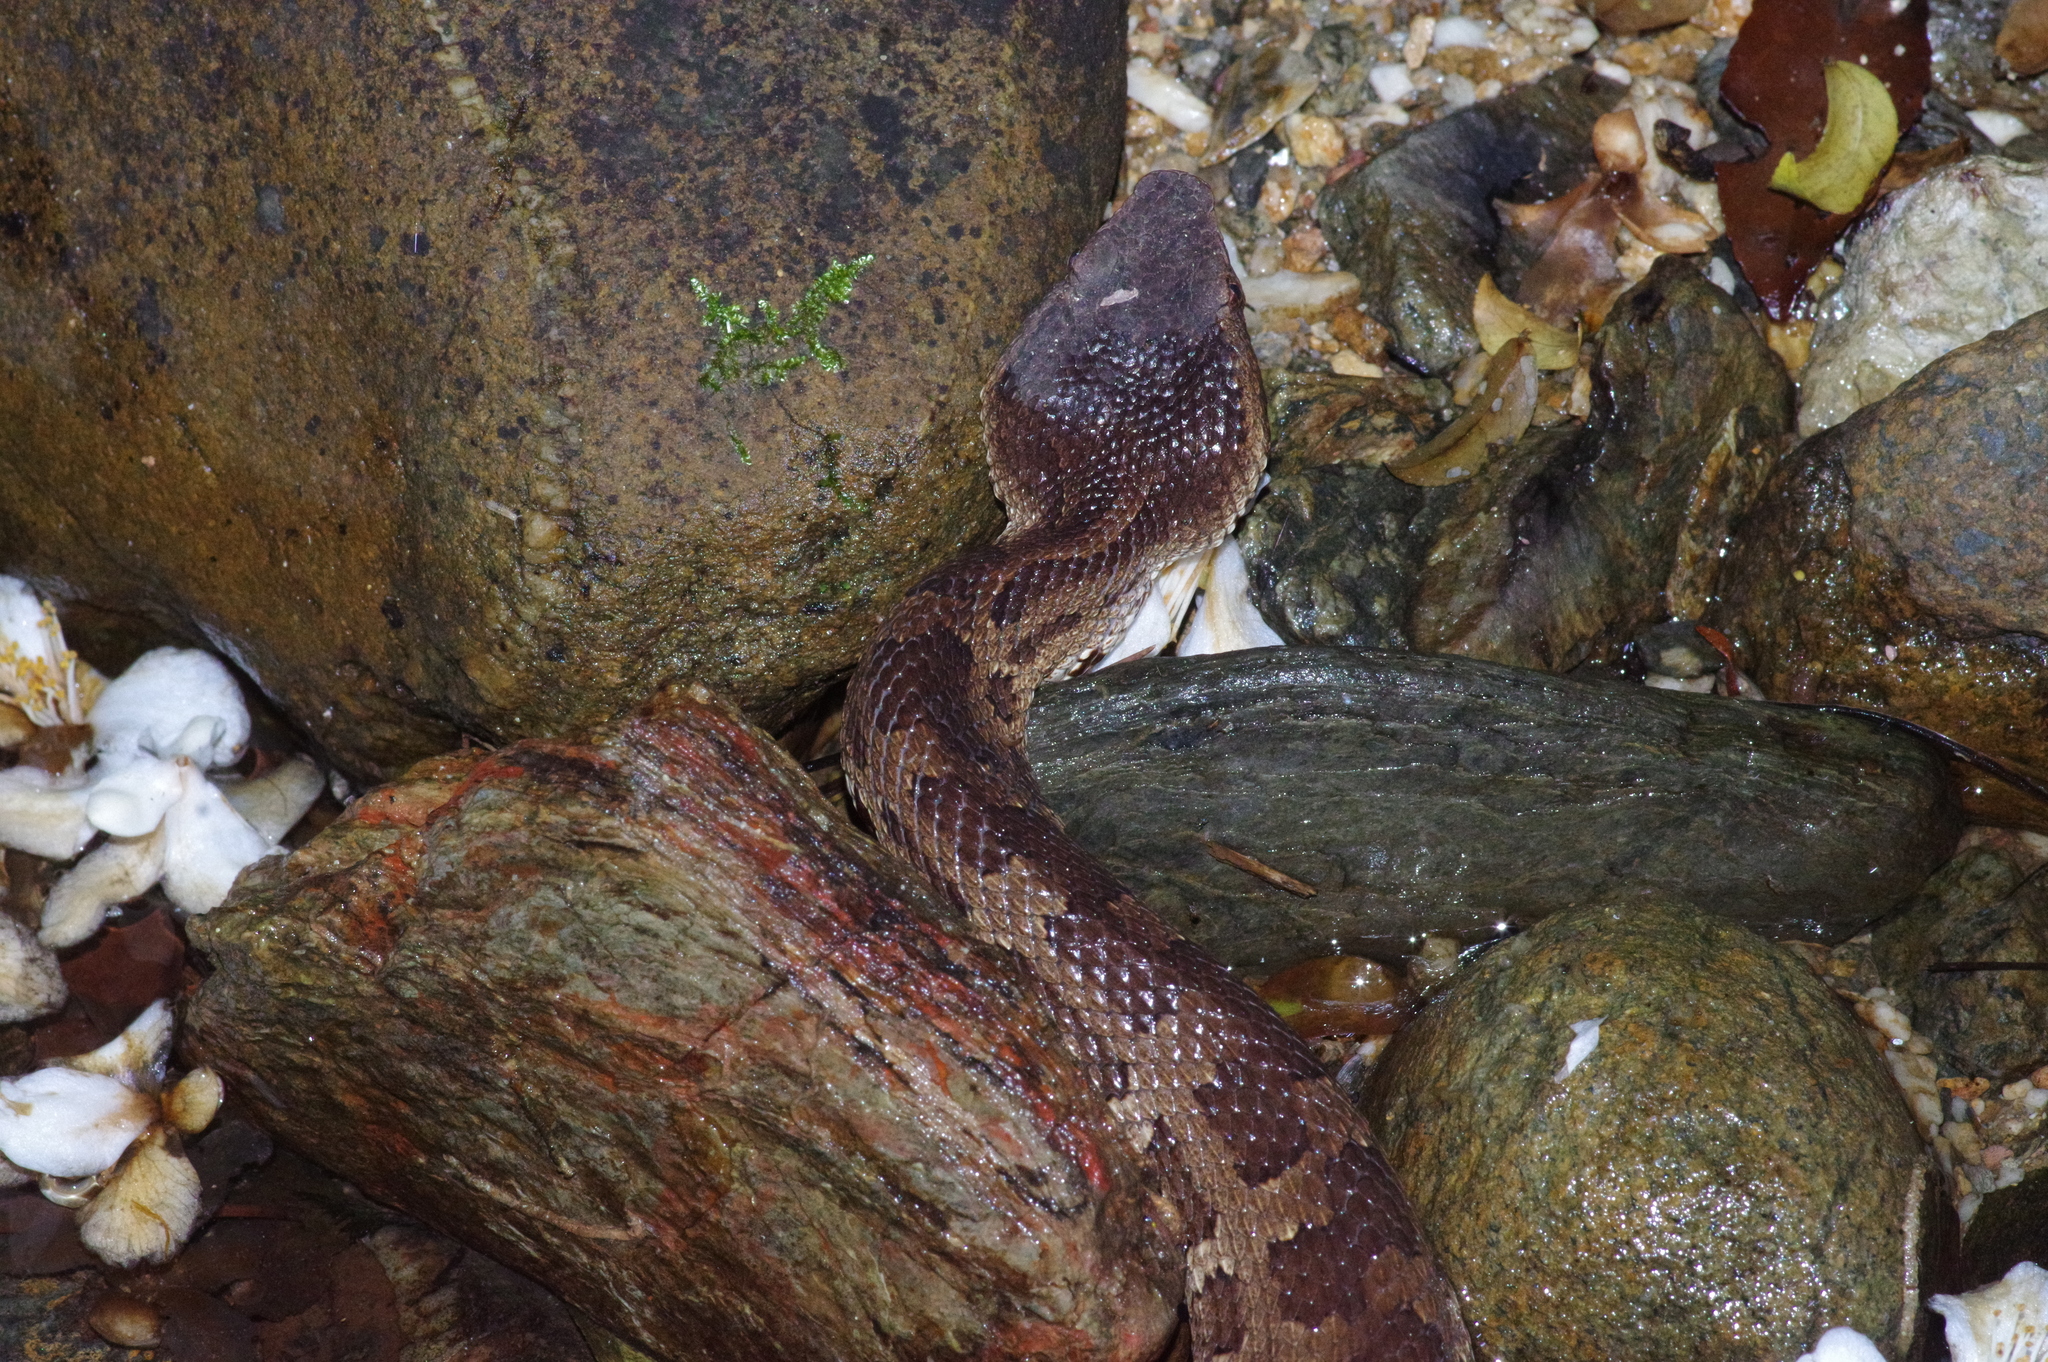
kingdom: Animalia
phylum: Chordata
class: Squamata
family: Viperidae
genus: Ovophis
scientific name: Ovophis okinavensis
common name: Okinawa pitviper
